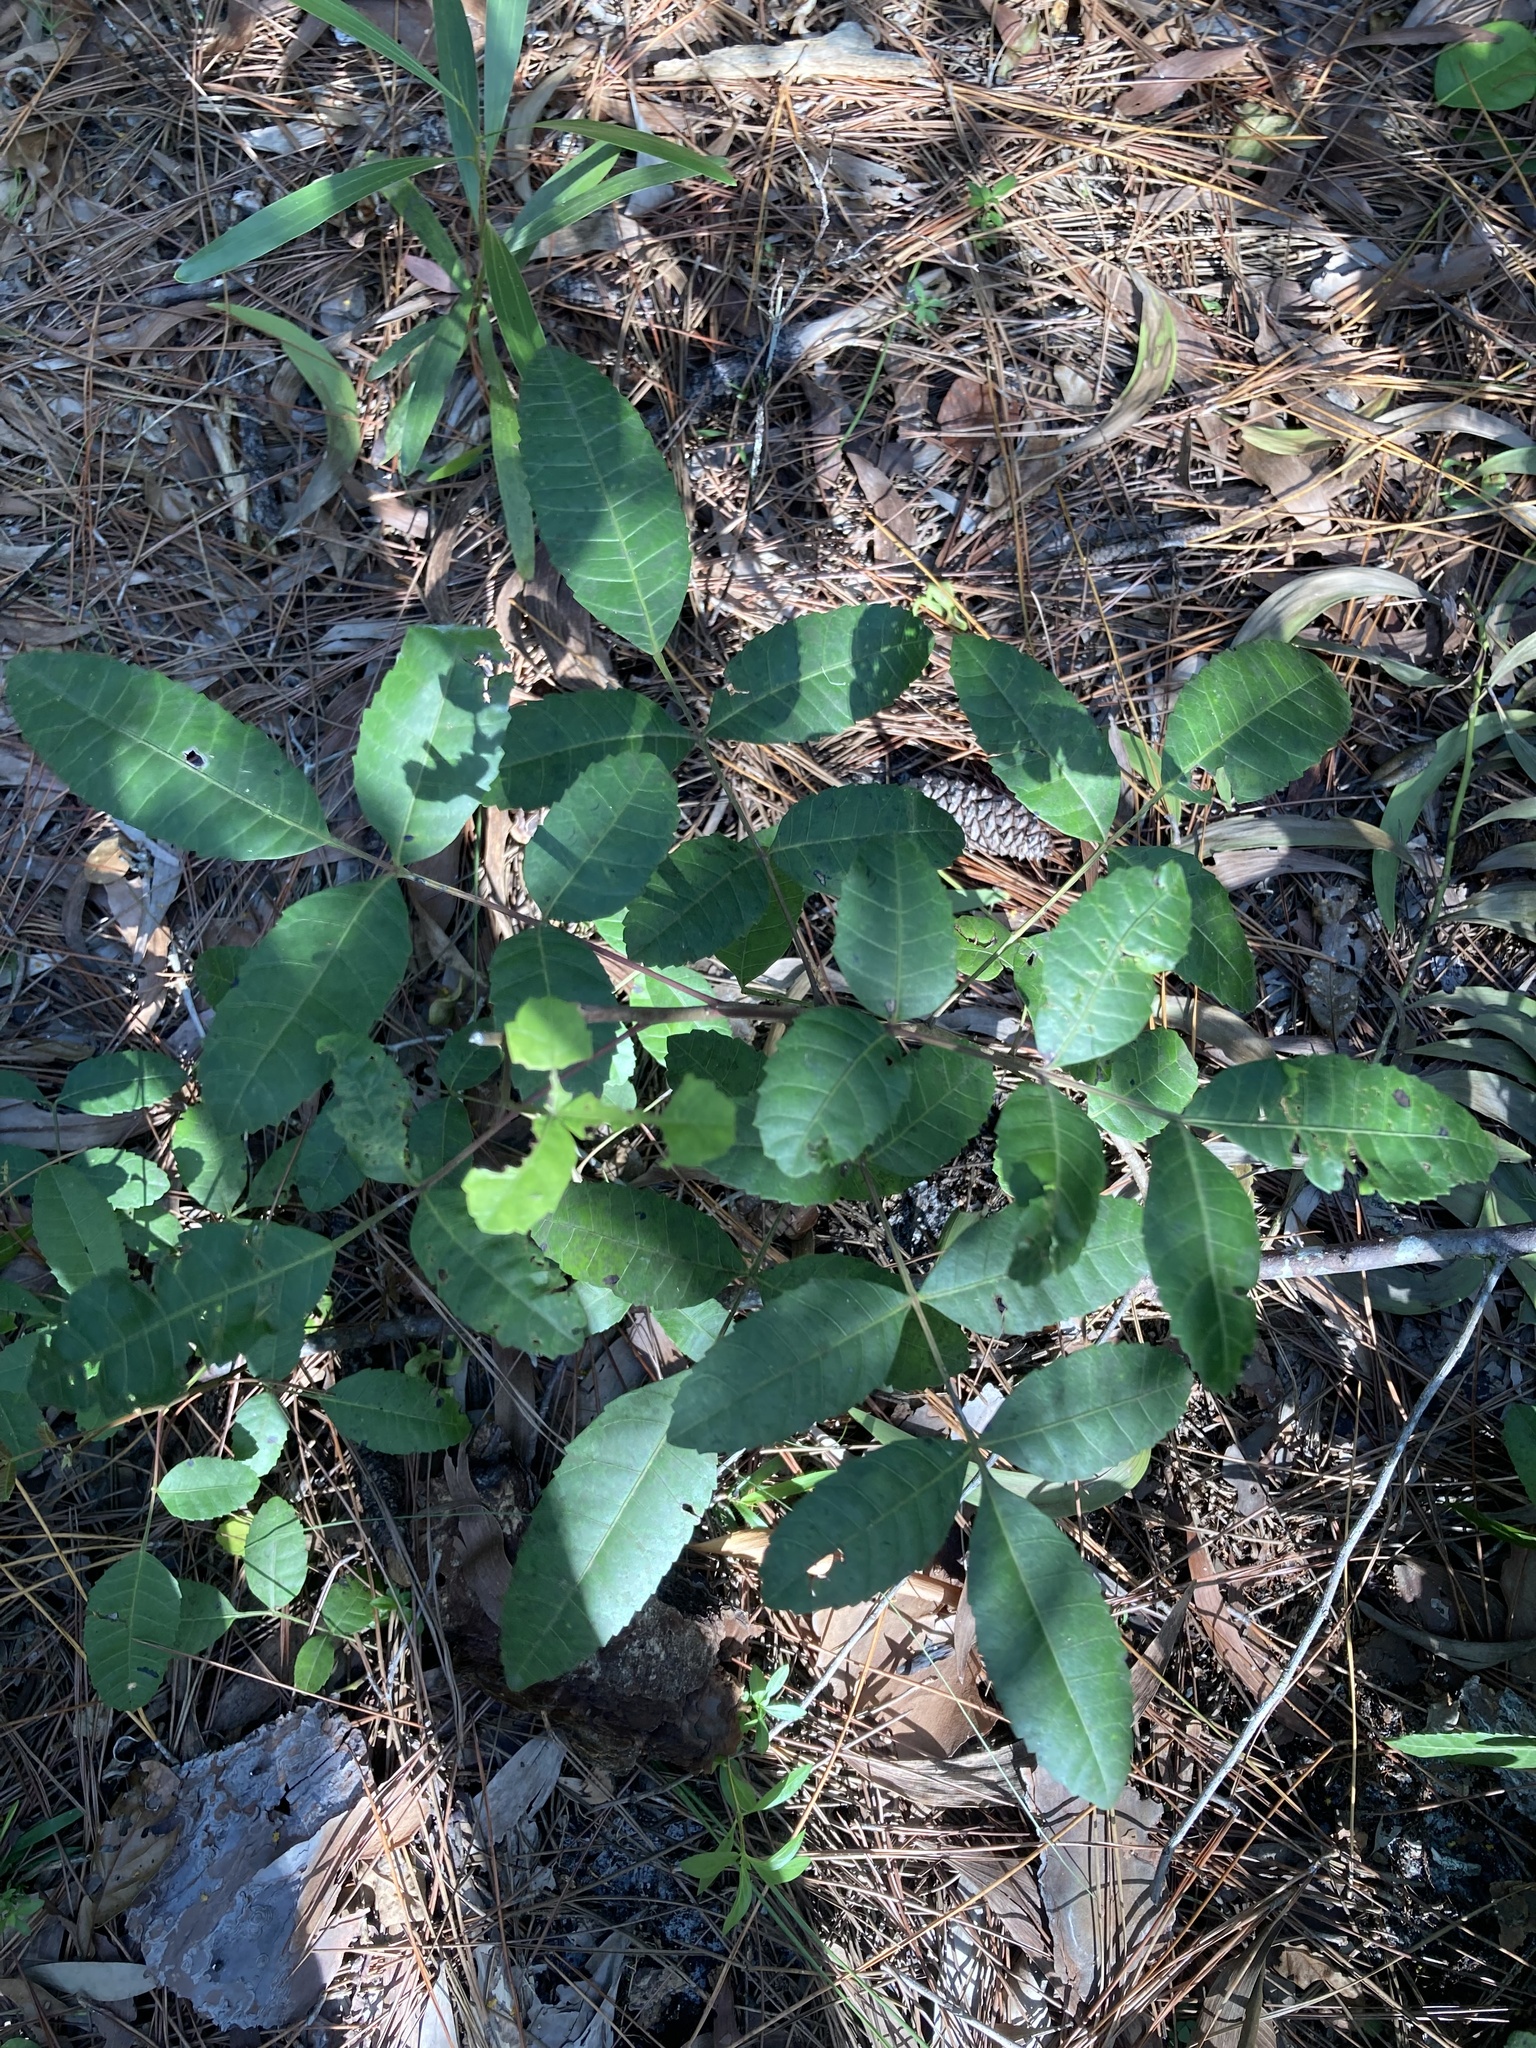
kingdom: Plantae
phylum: Tracheophyta
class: Magnoliopsida
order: Sapindales
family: Anacardiaceae
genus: Schinus
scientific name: Schinus terebinthifolia
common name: Brazilian peppertree
